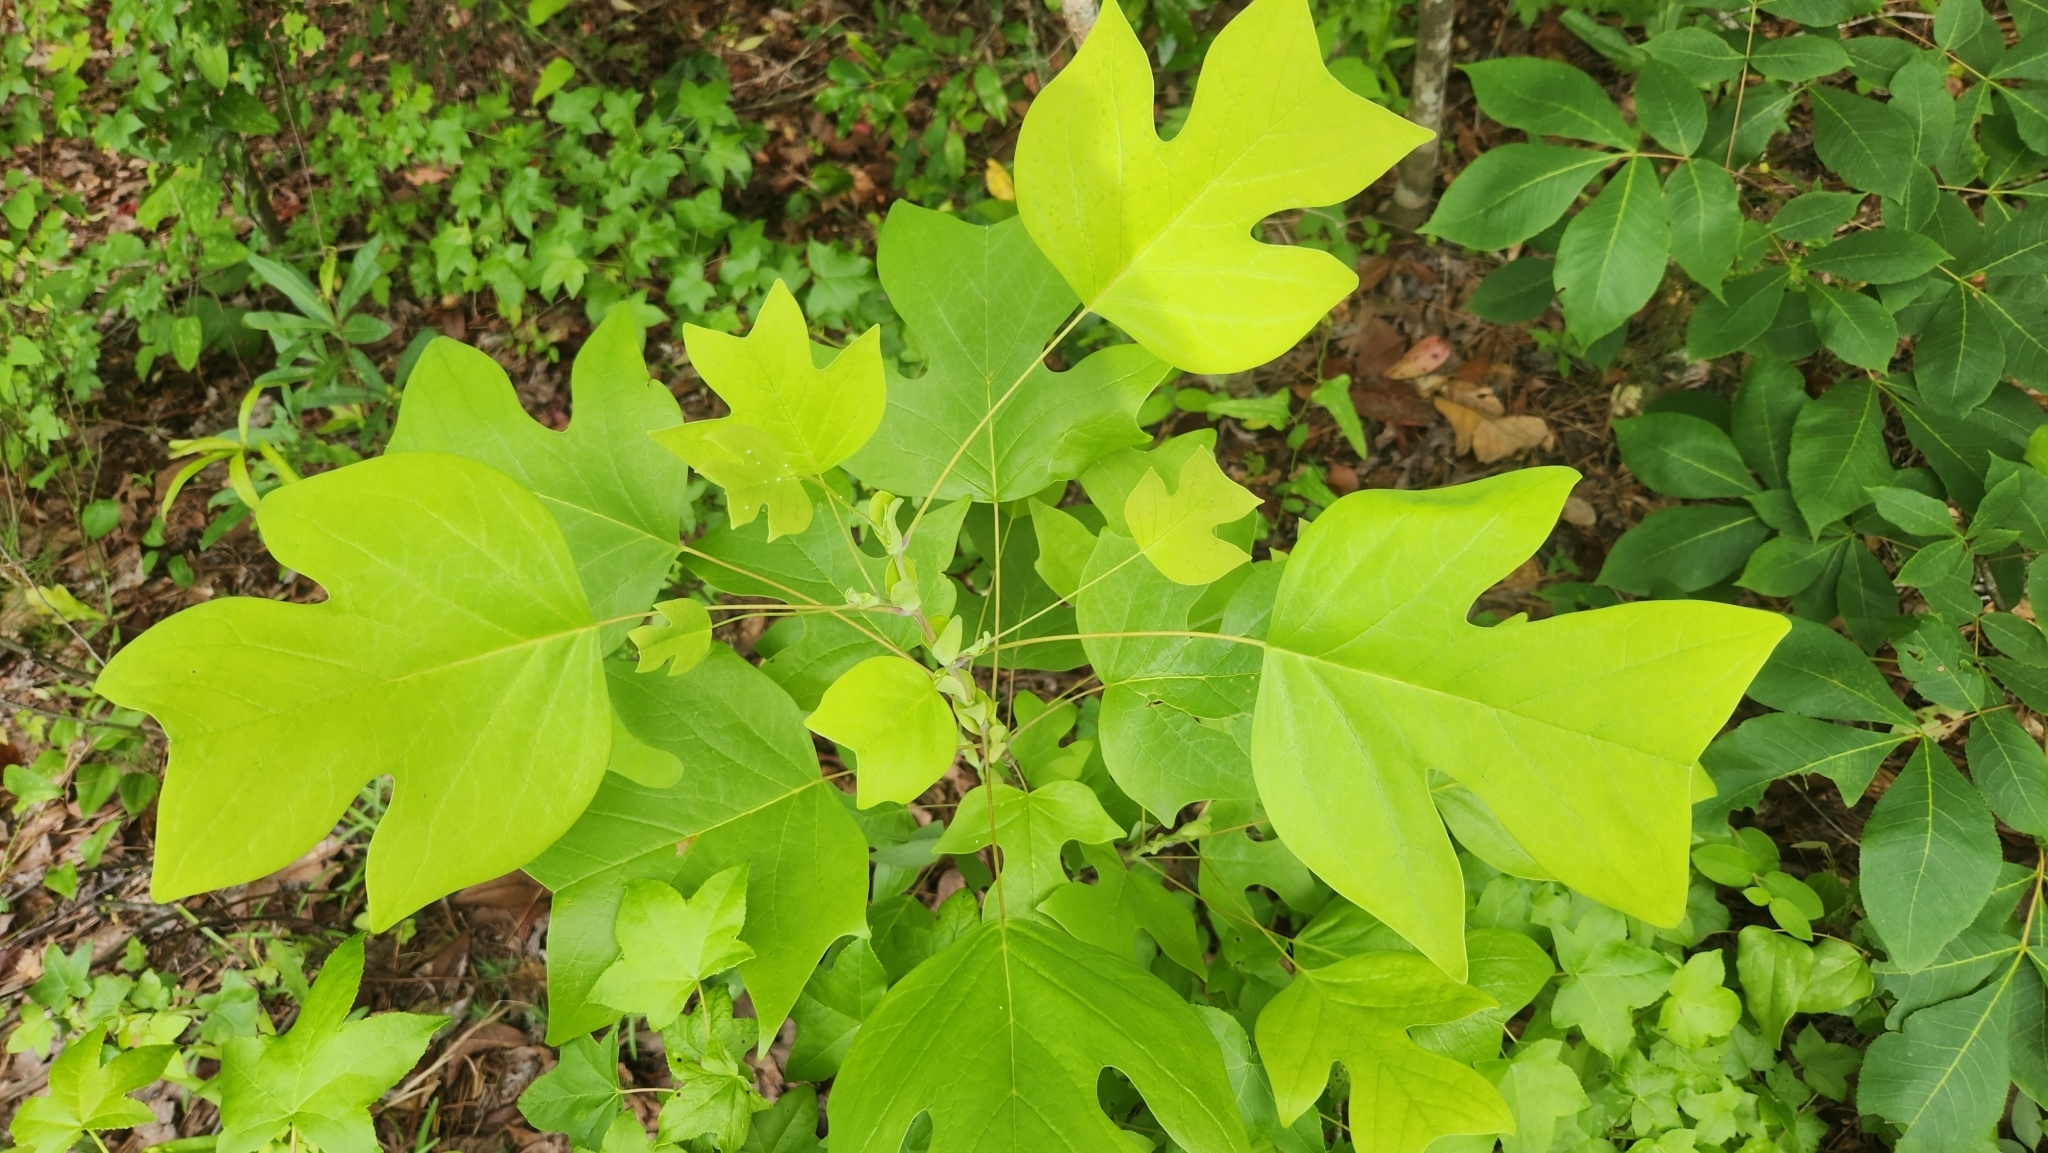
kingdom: Plantae
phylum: Tracheophyta
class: Magnoliopsida
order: Magnoliales
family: Magnoliaceae
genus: Liriodendron
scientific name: Liriodendron tulipifera
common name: Tulip tree
